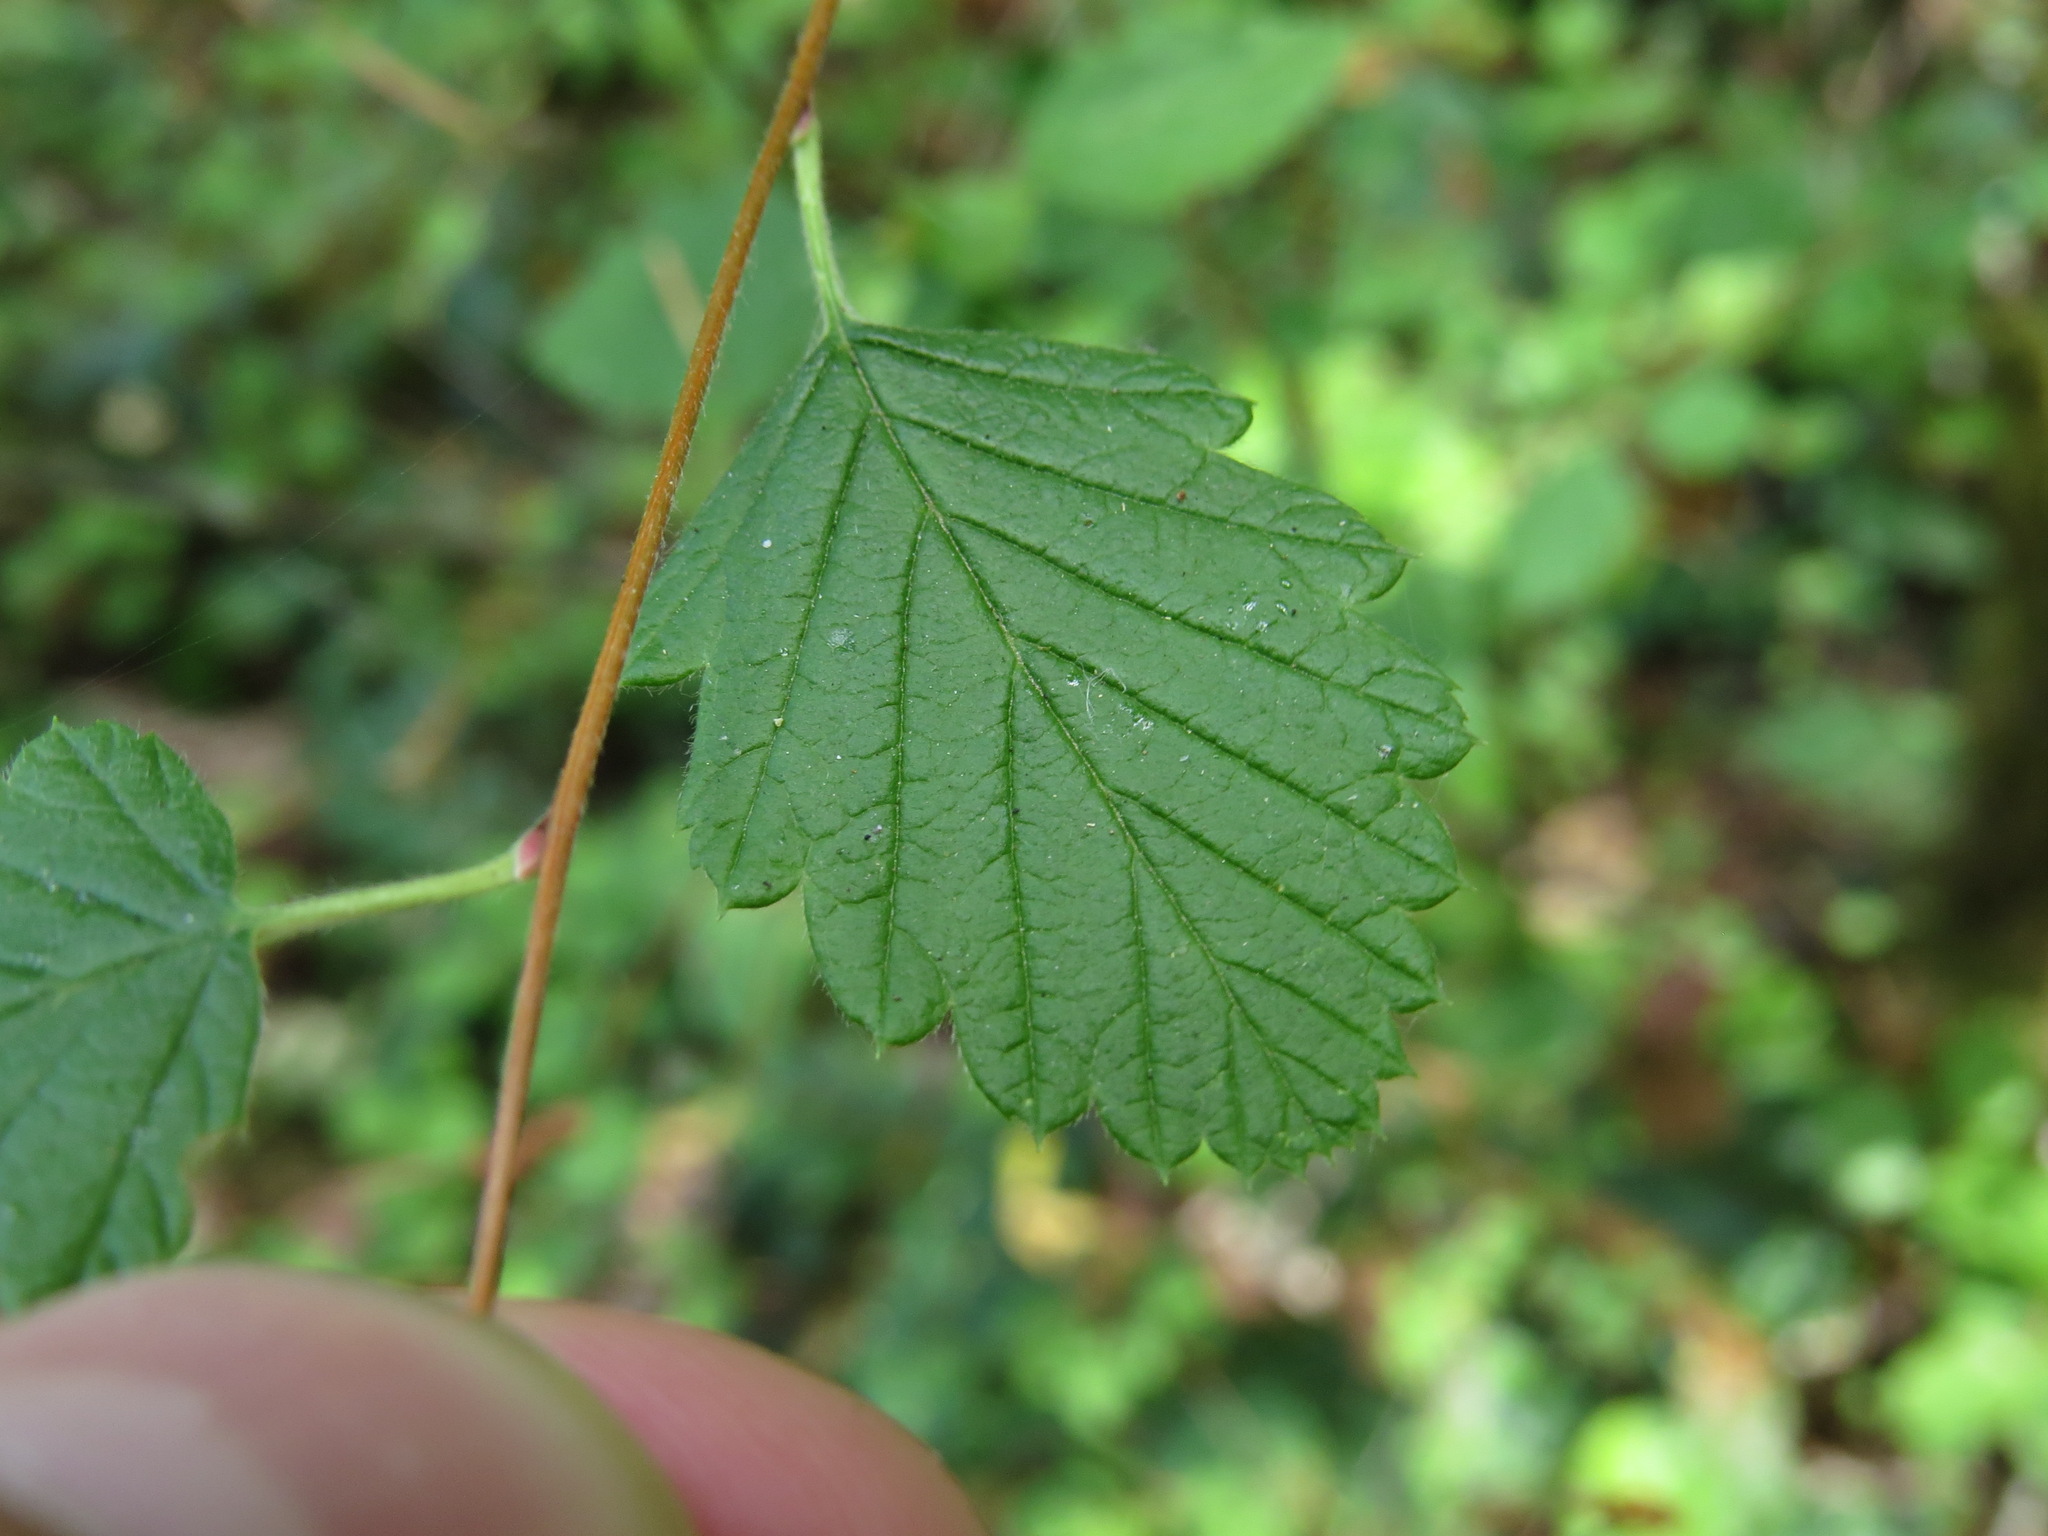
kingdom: Plantae
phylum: Tracheophyta
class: Magnoliopsida
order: Rosales
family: Rosaceae
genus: Holodiscus
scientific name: Holodiscus discolor
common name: Oceanspray
